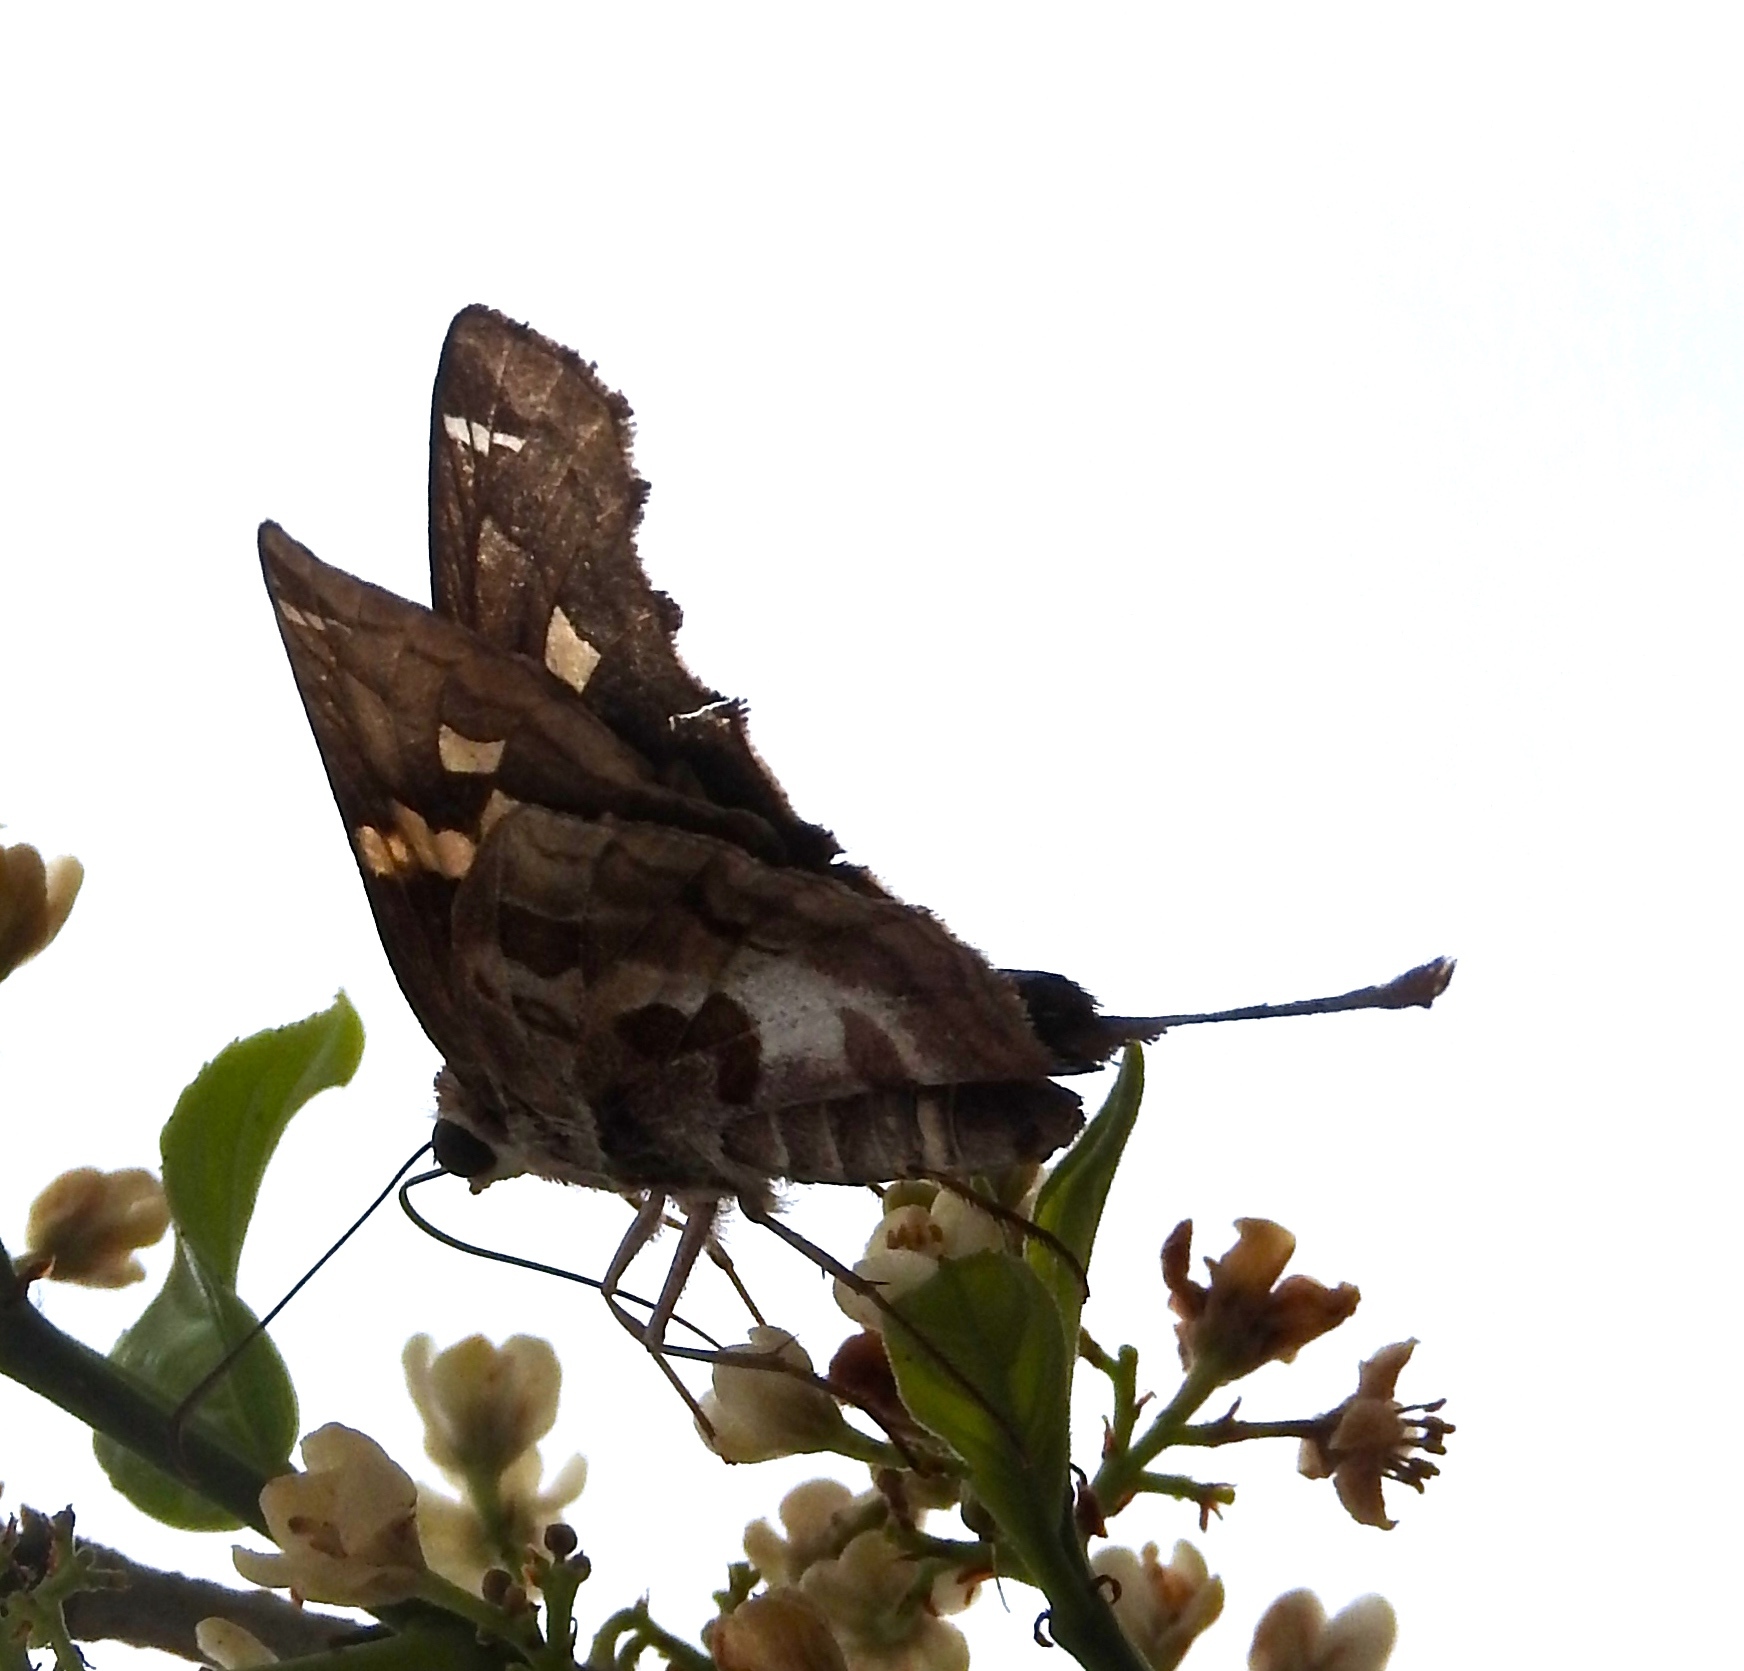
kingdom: Animalia
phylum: Arthropoda
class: Insecta
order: Lepidoptera
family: Hesperiidae
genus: Chioides
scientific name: Chioides zilpa
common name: Zilpa longtail
